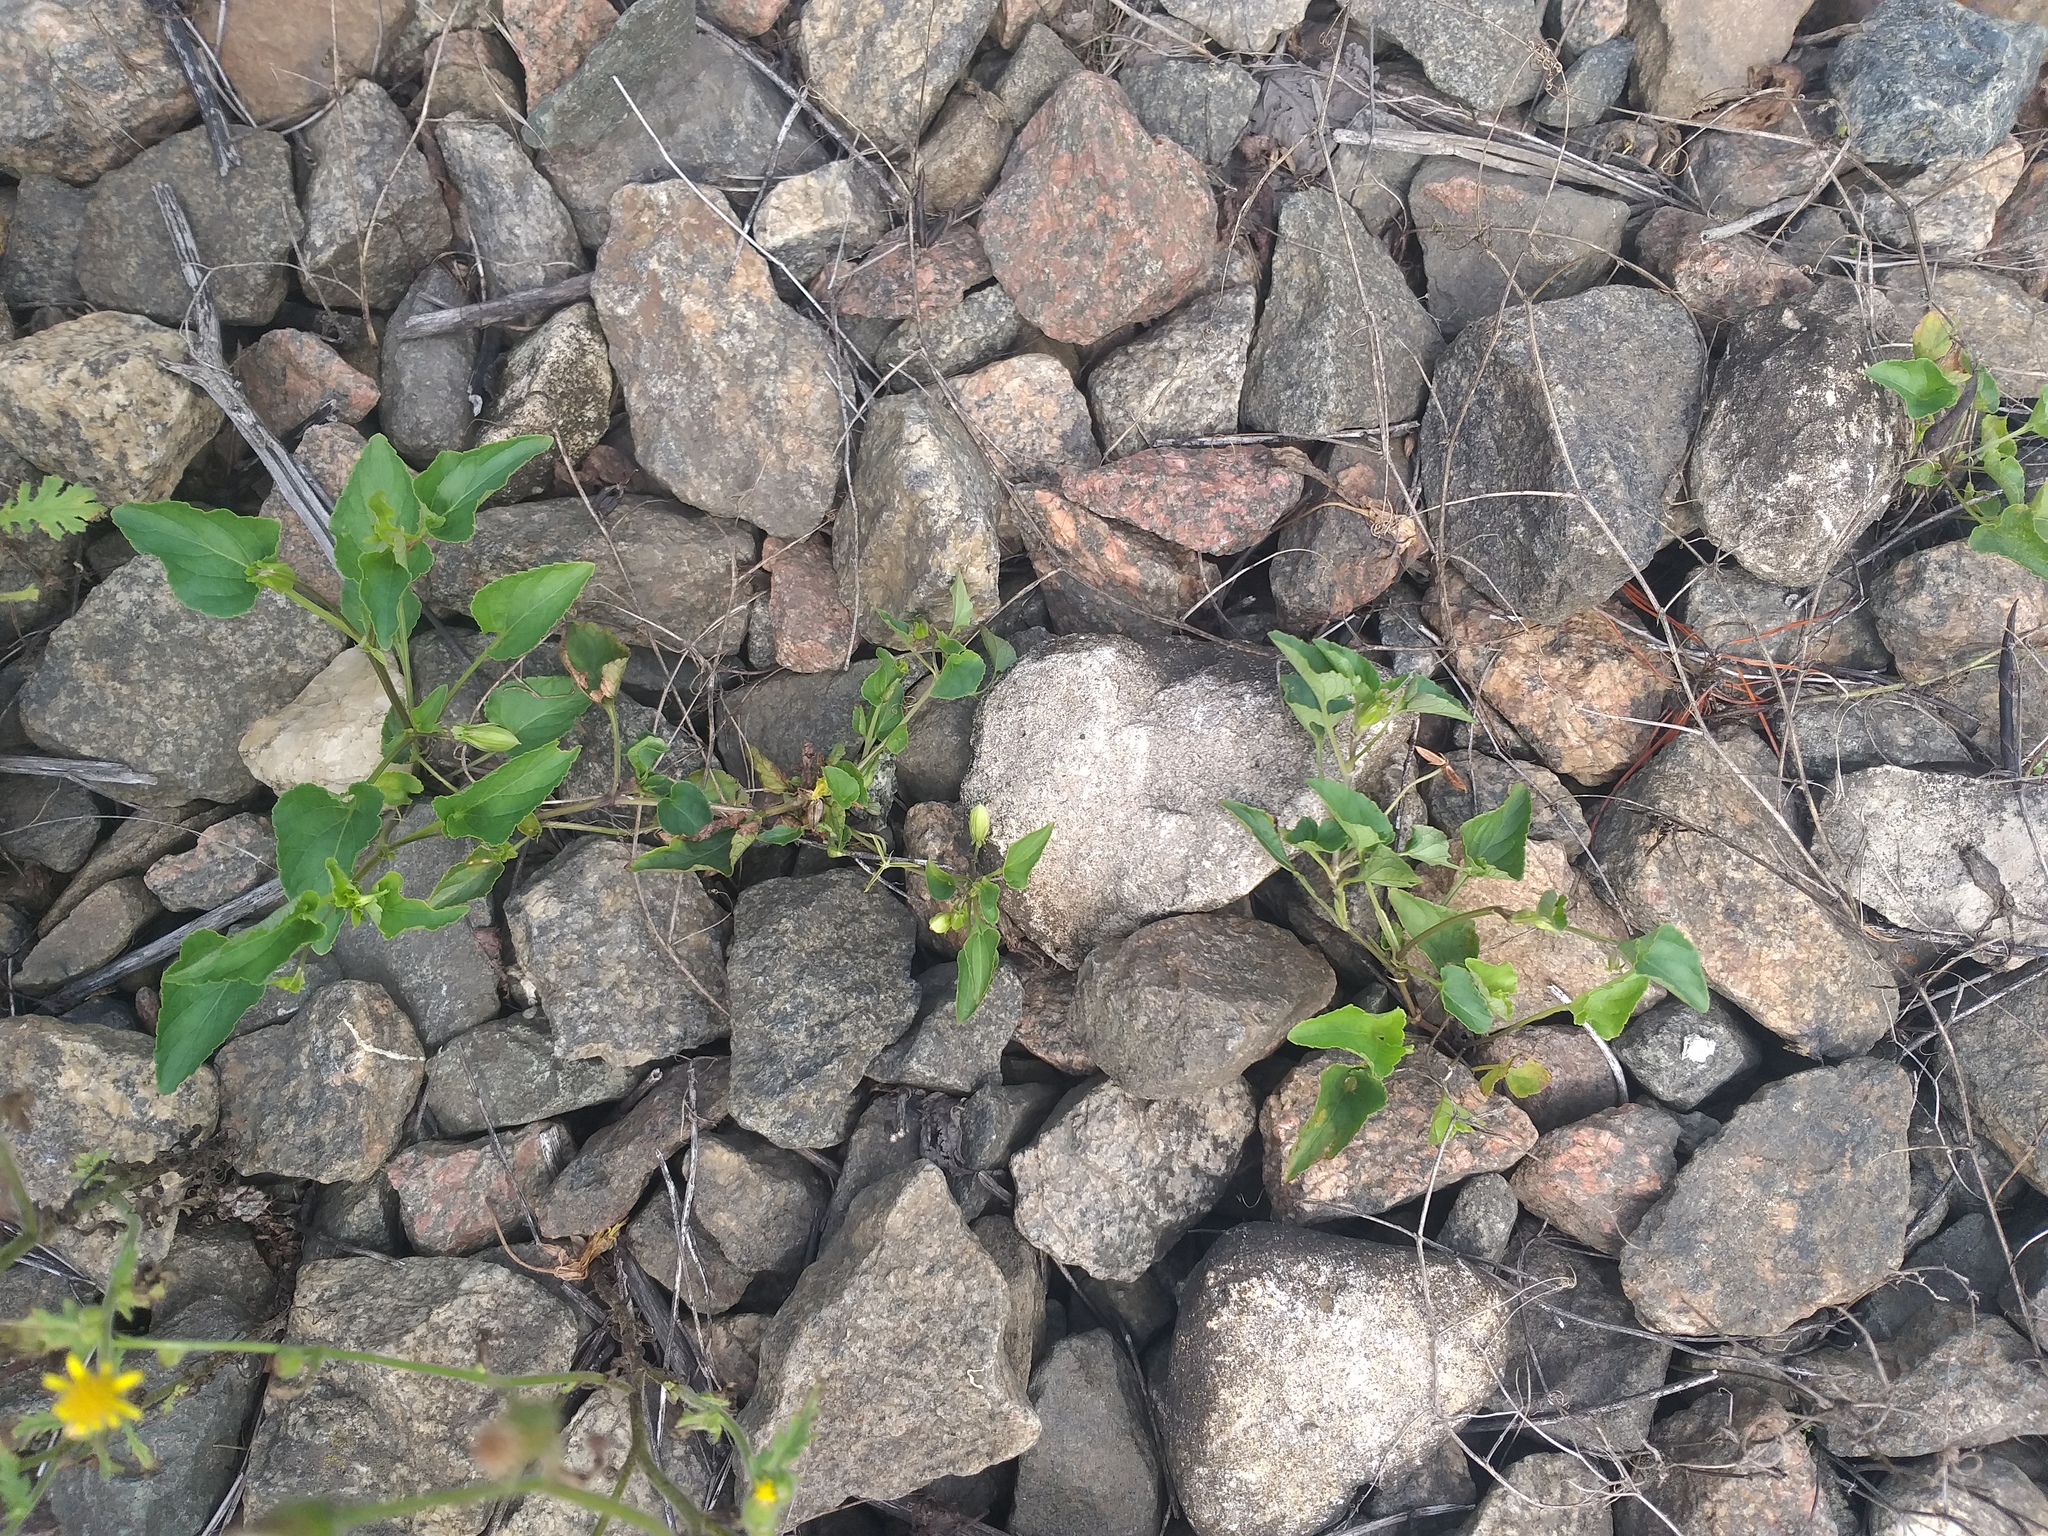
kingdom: Plantae
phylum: Tracheophyta
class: Magnoliopsida
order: Malpighiales
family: Violaceae
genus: Viola
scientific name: Viola canina
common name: Heath dog-violet
